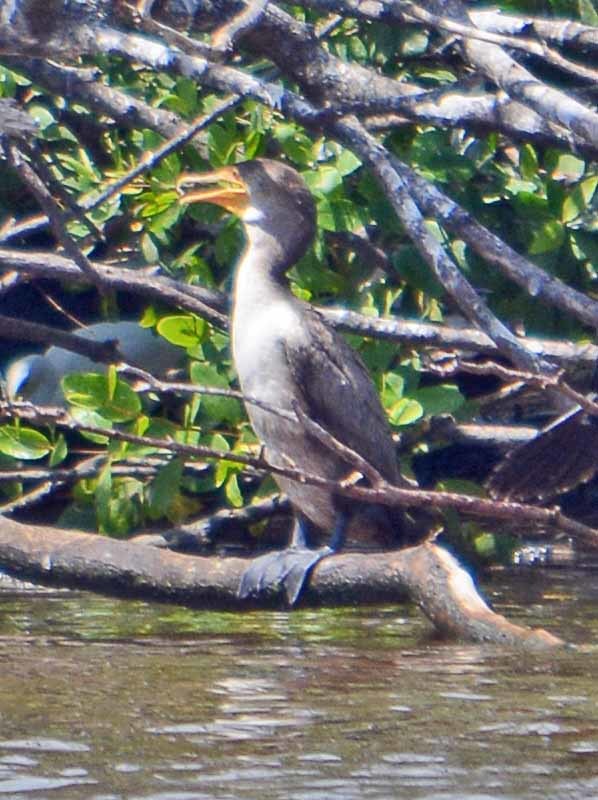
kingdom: Animalia
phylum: Chordata
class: Aves
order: Suliformes
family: Phalacrocoracidae
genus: Phalacrocorax
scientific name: Phalacrocorax auritus
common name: Double-crested cormorant
